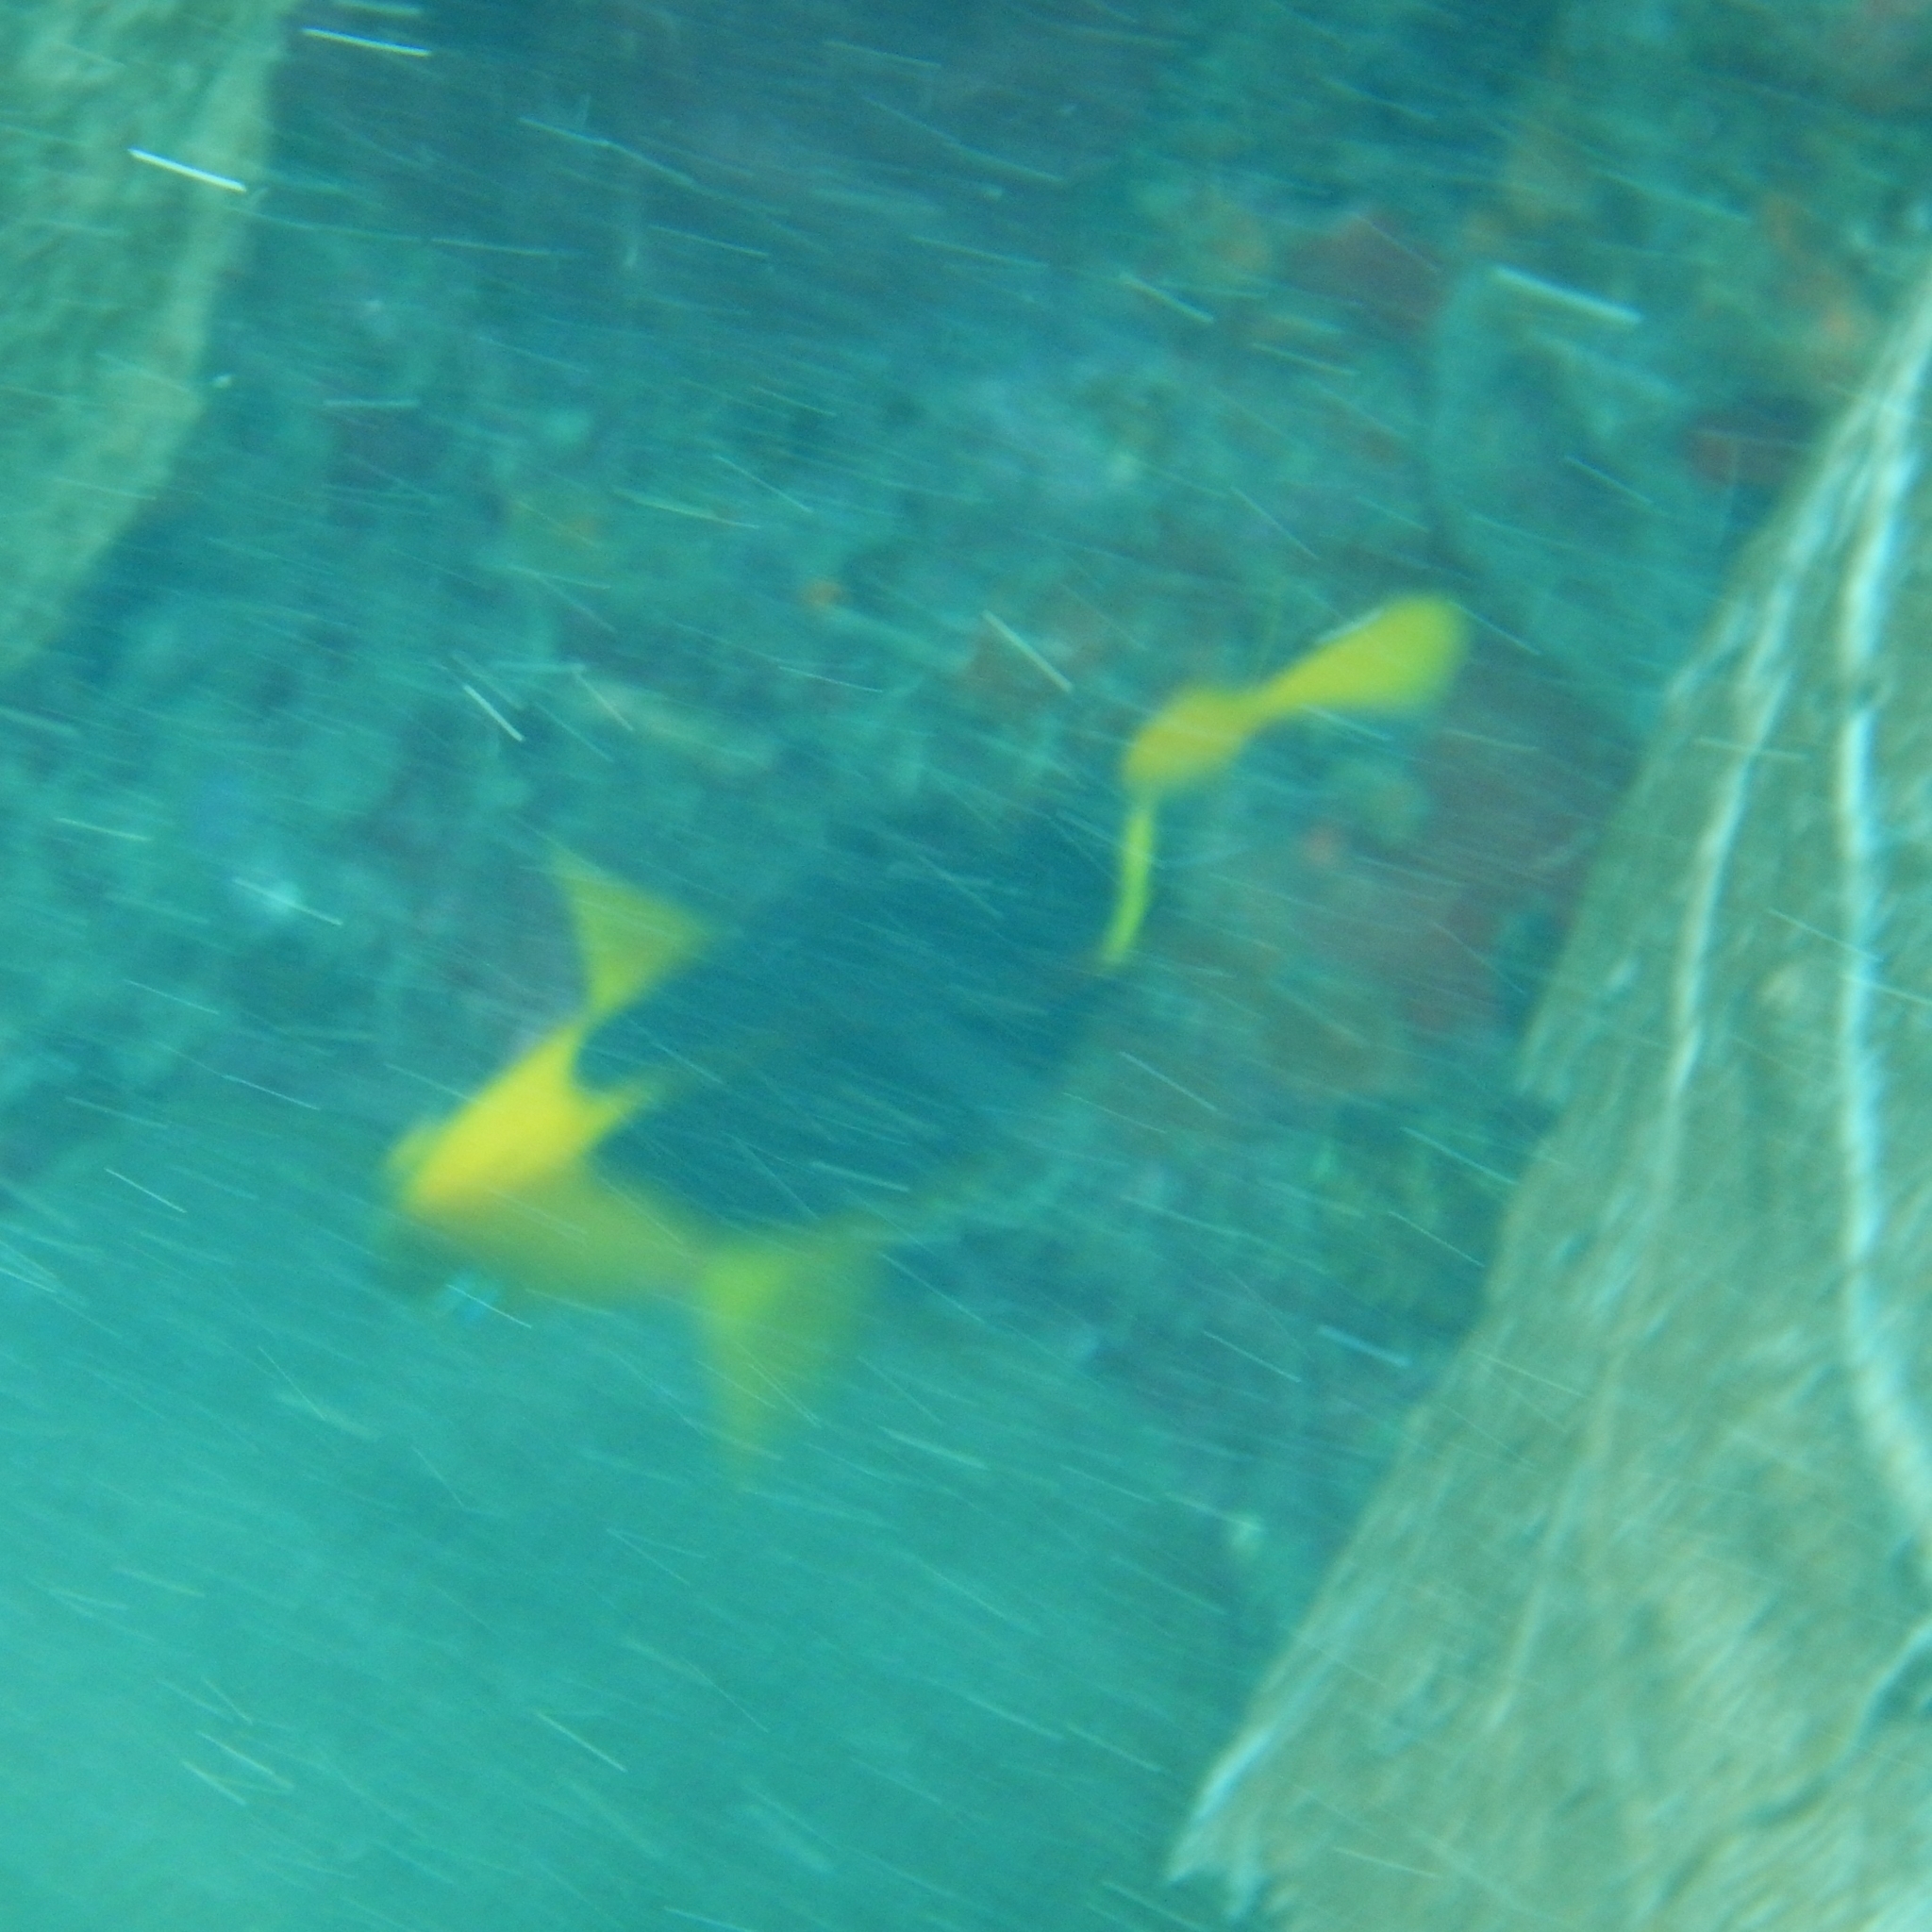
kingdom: Animalia
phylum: Chordata
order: Perciformes
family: Pomacanthidae
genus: Holacanthus
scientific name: Holacanthus tricolor
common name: Rock beauty
